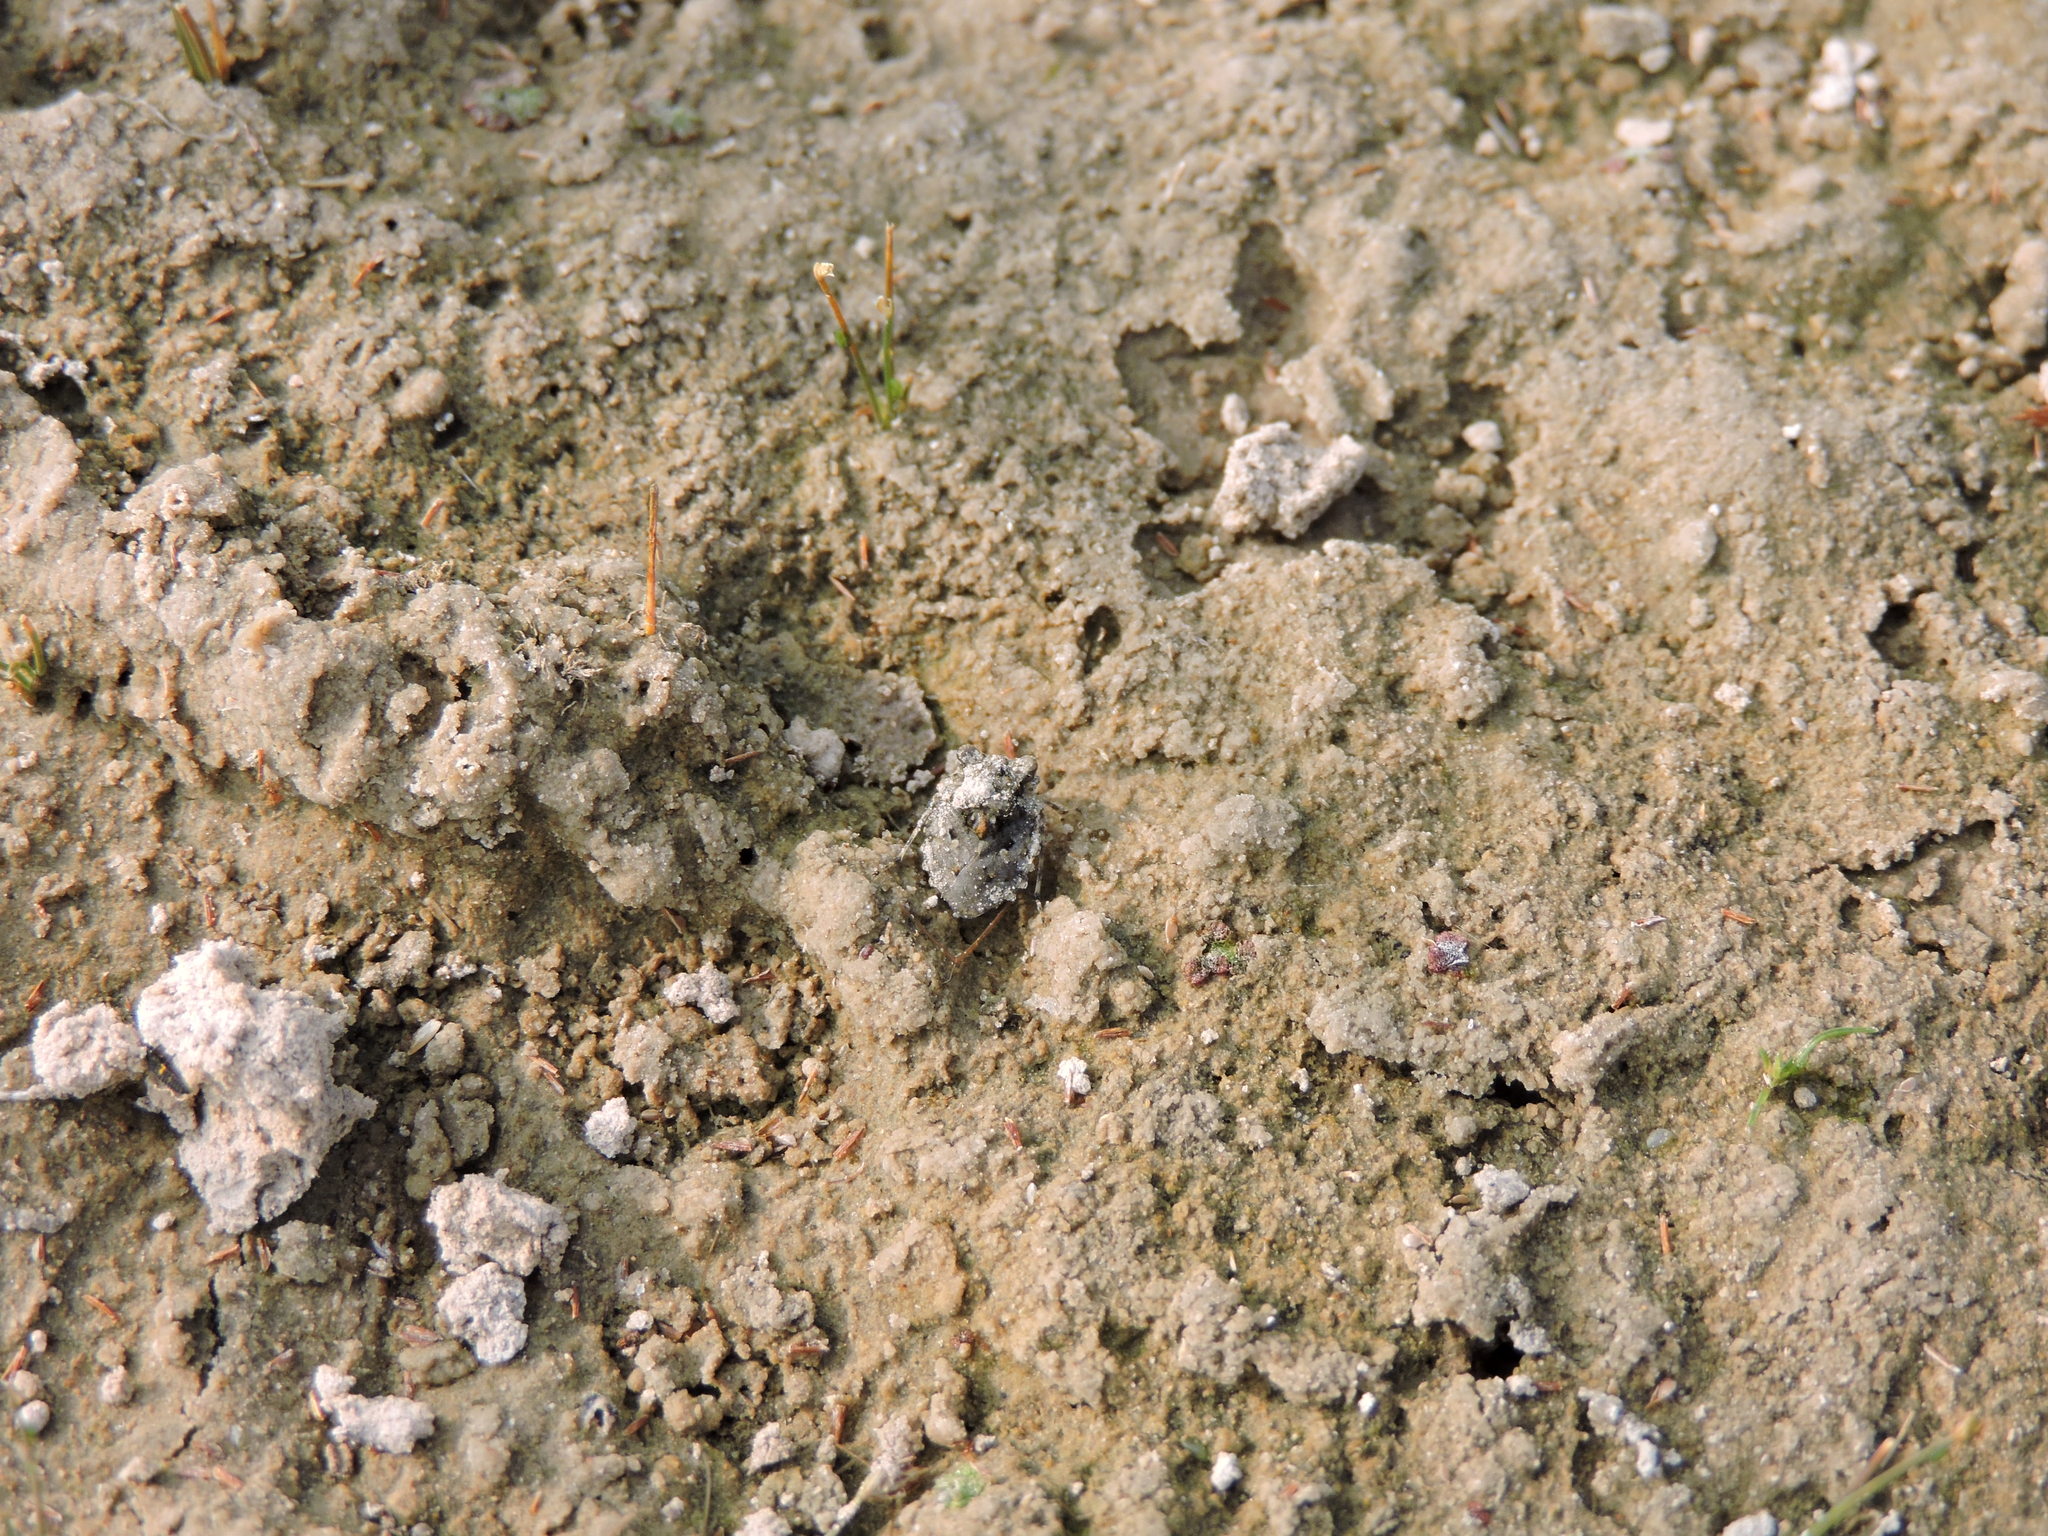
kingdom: Animalia
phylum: Arthropoda
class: Insecta
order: Hemiptera
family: Gelastocoridae
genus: Gelastocoris
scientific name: Gelastocoris oculatus
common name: Toad bug
